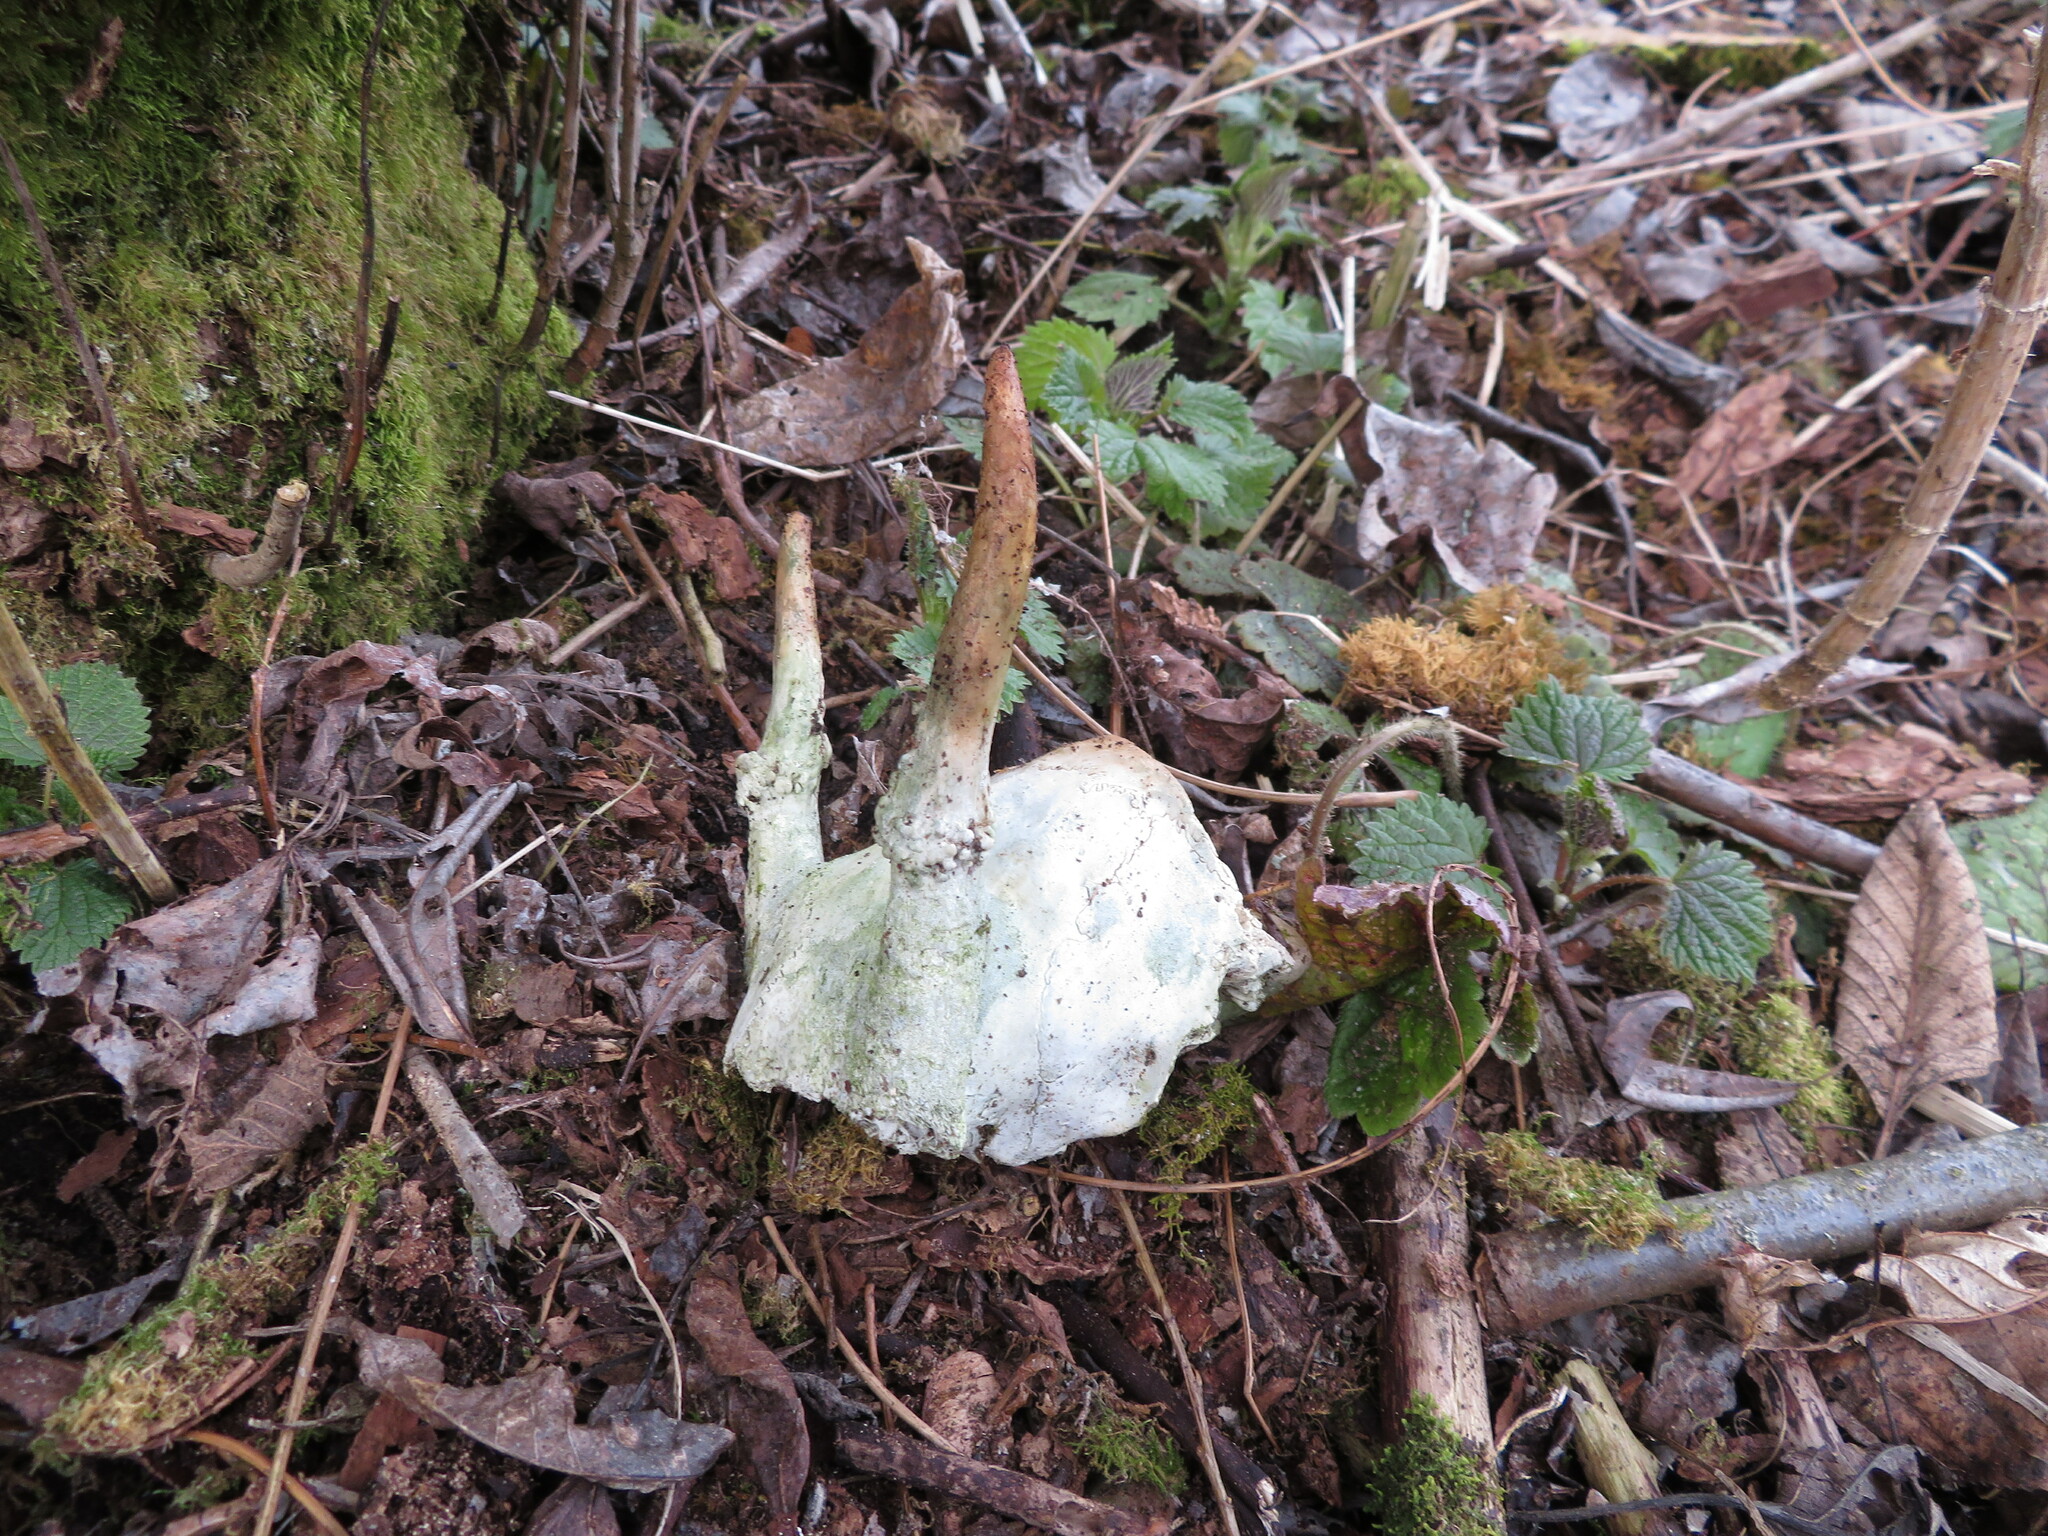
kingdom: Animalia
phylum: Chordata
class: Mammalia
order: Artiodactyla
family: Cervidae
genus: Odocoileus
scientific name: Odocoileus hemionus
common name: Mule deer
